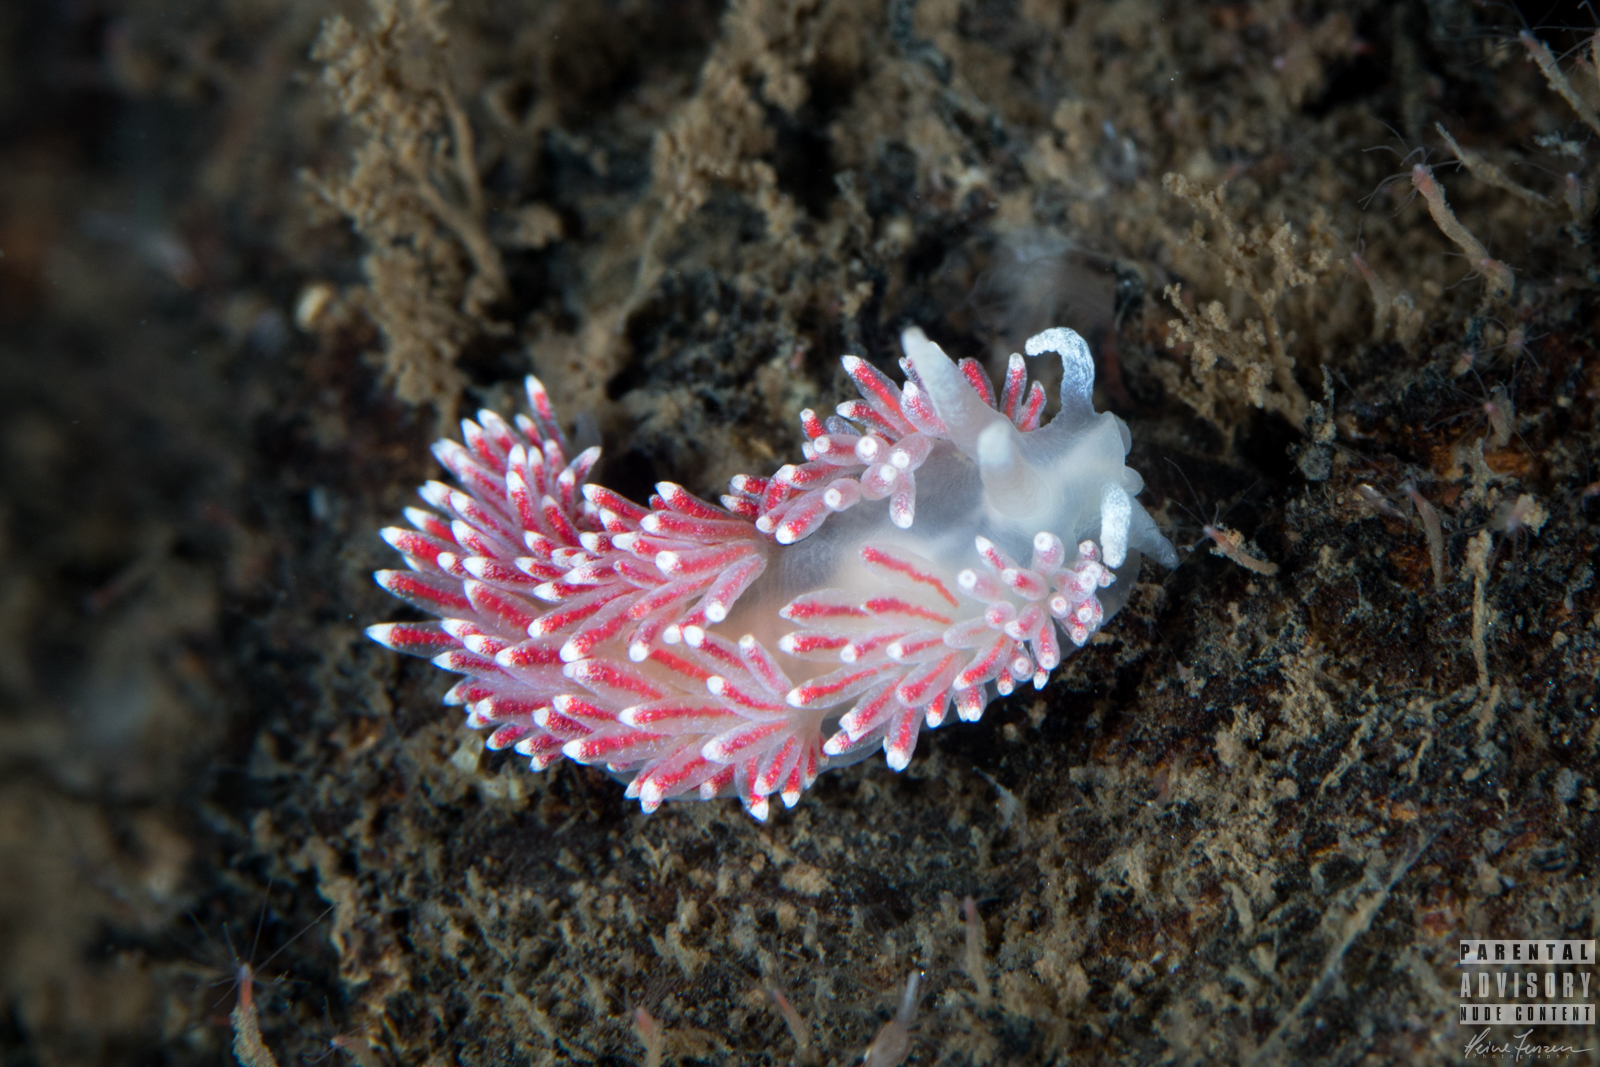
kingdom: Animalia
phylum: Mollusca
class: Gastropoda
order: Nudibranchia
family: Flabellinidae
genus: Carronella
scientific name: Carronella pellucida
